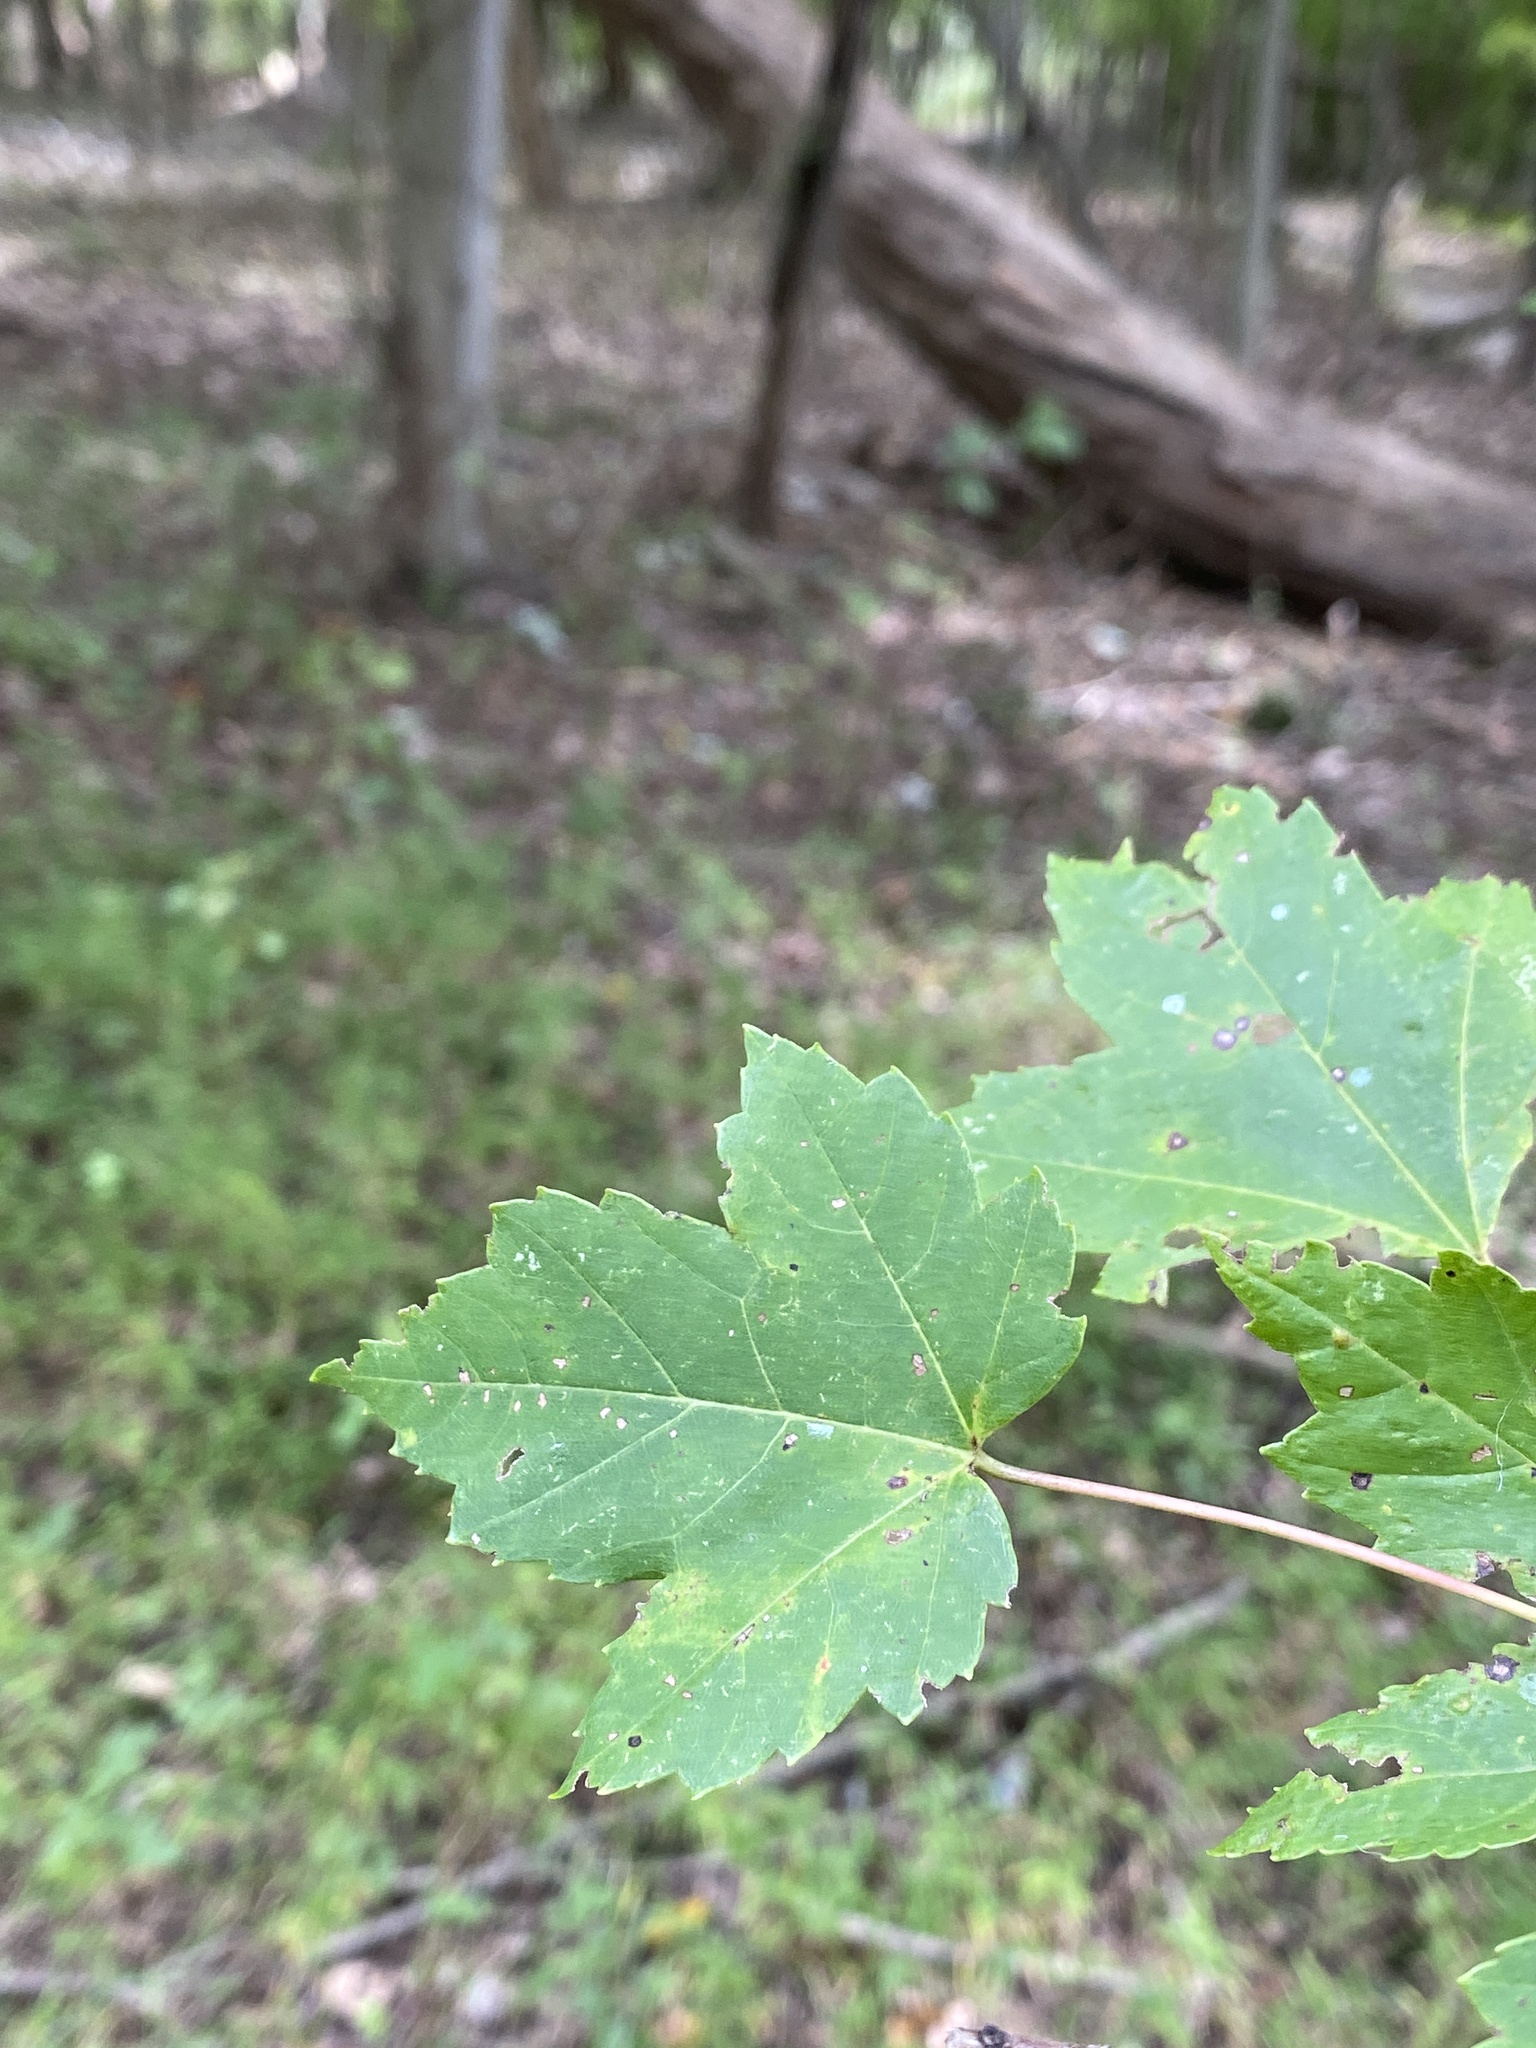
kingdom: Plantae
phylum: Tracheophyta
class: Magnoliopsida
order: Sapindales
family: Sapindaceae
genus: Acer
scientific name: Acer rubrum
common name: Red maple
